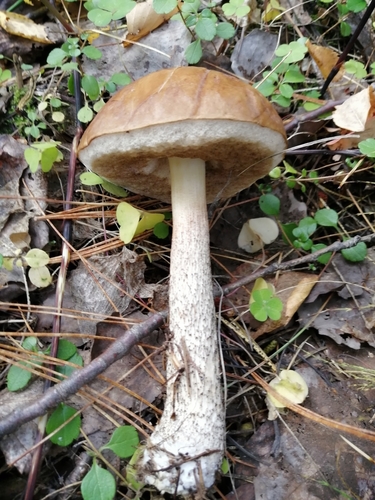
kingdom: Fungi
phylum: Basidiomycota
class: Agaricomycetes
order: Boletales
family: Boletaceae
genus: Leccinum
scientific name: Leccinum
